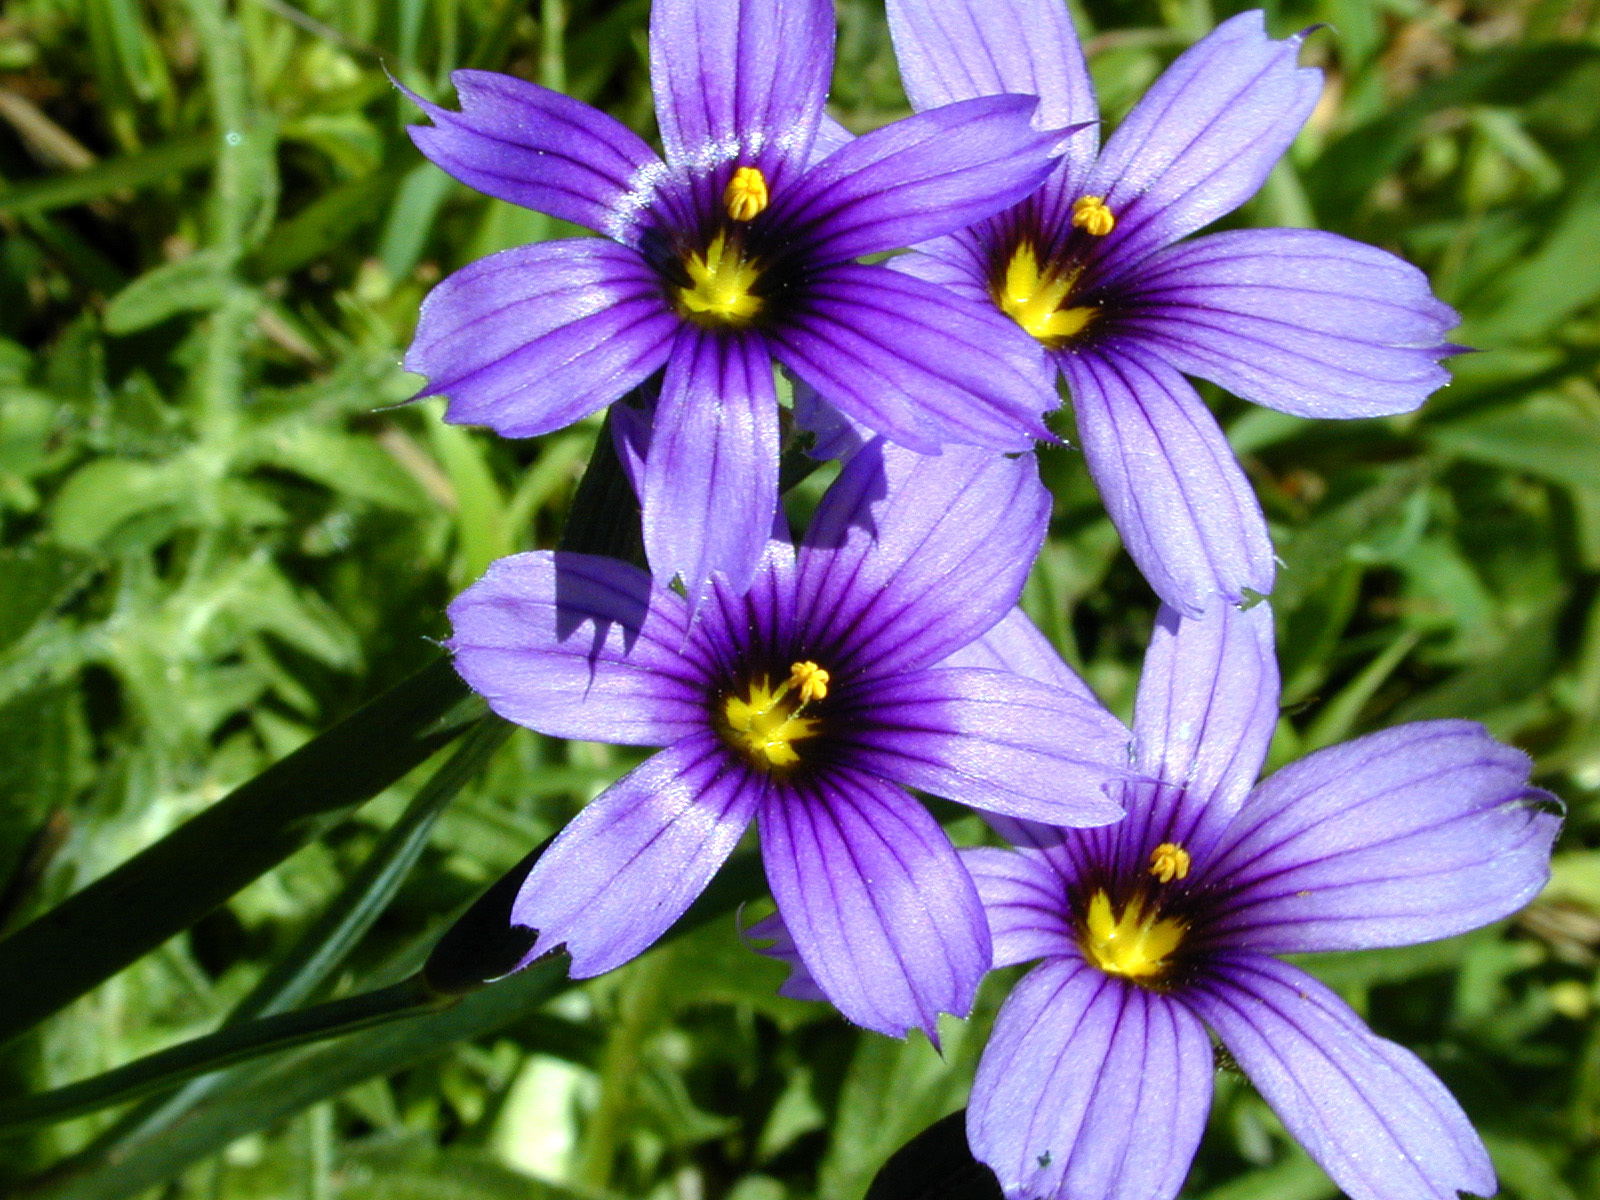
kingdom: Plantae
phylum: Tracheophyta
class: Liliopsida
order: Asparagales
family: Iridaceae
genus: Sisyrinchium
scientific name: Sisyrinchium bellum
